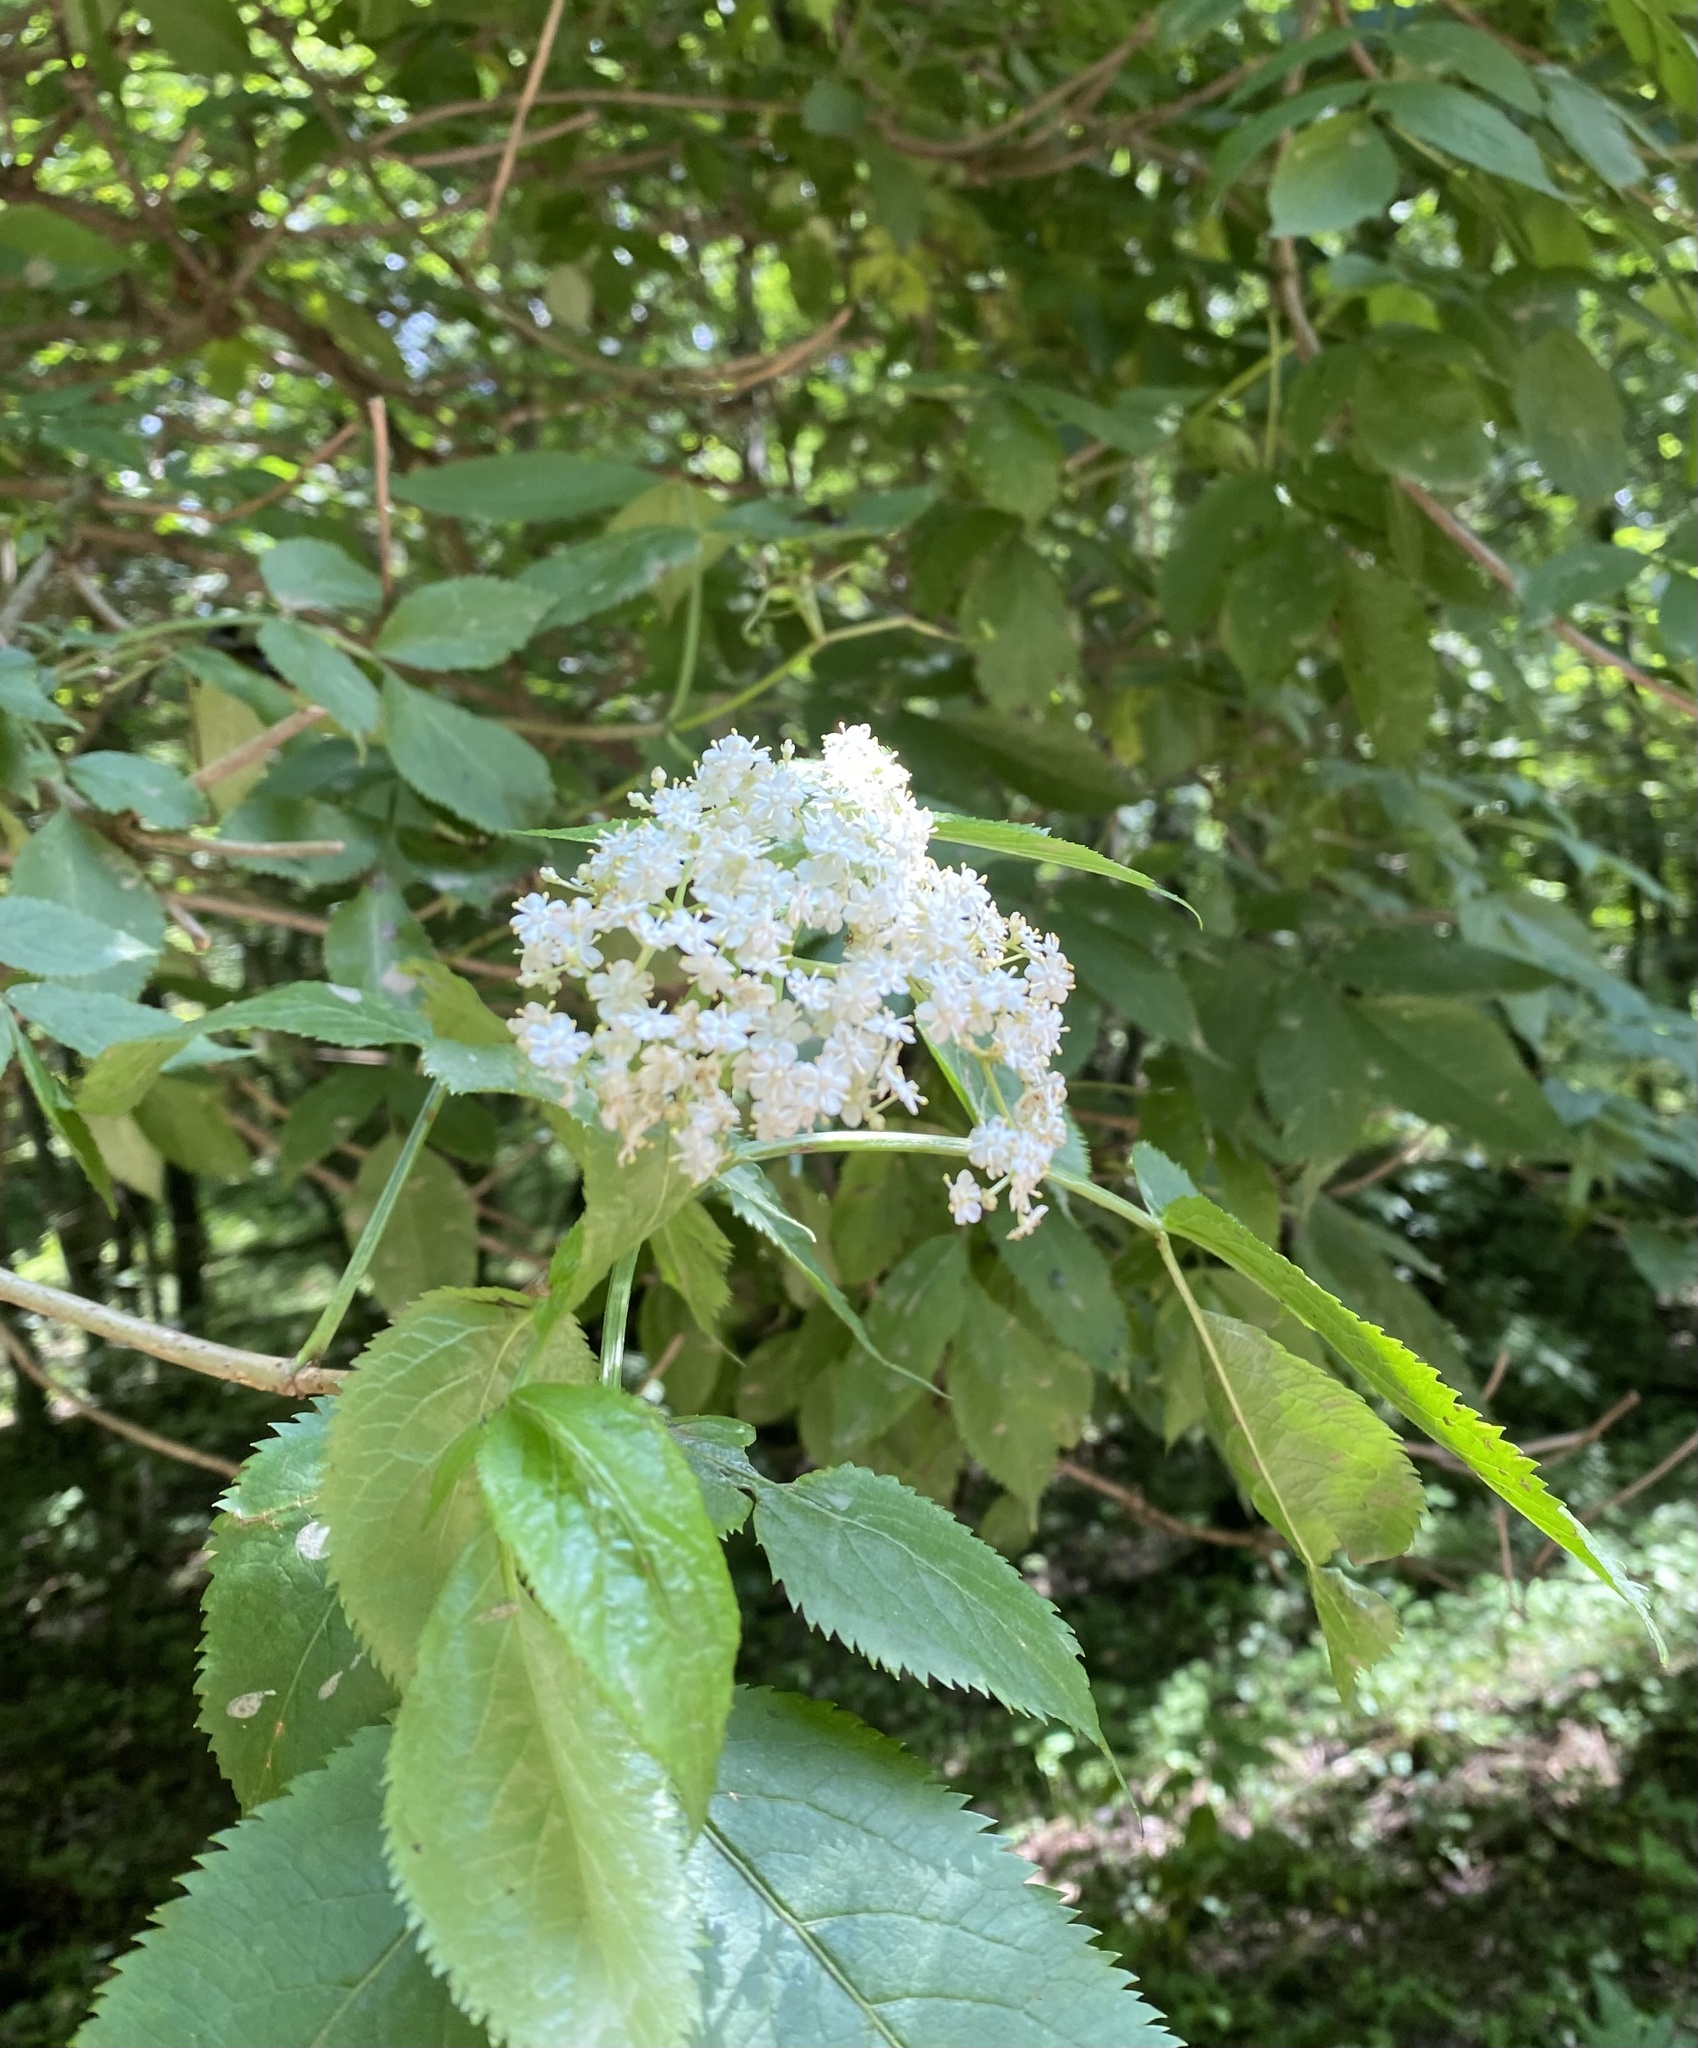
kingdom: Plantae
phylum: Tracheophyta
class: Magnoliopsida
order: Dipsacales
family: Viburnaceae
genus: Sambucus
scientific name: Sambucus nigra
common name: Elder
